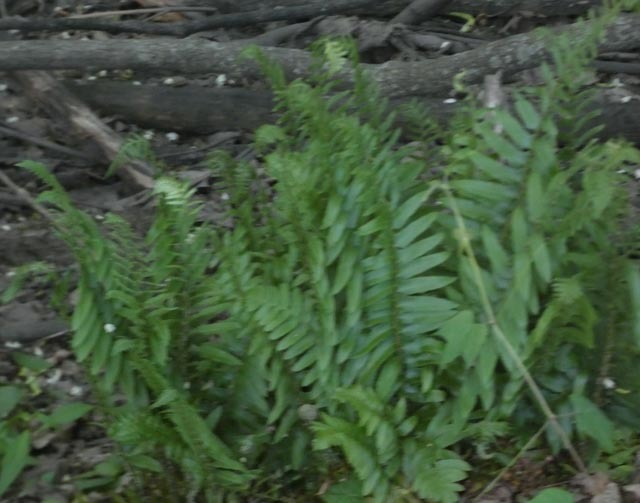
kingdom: Plantae
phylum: Tracheophyta
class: Polypodiopsida
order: Polypodiales
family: Dryopteridaceae
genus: Polystichum
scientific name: Polystichum acrostichoides
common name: Christmas fern
